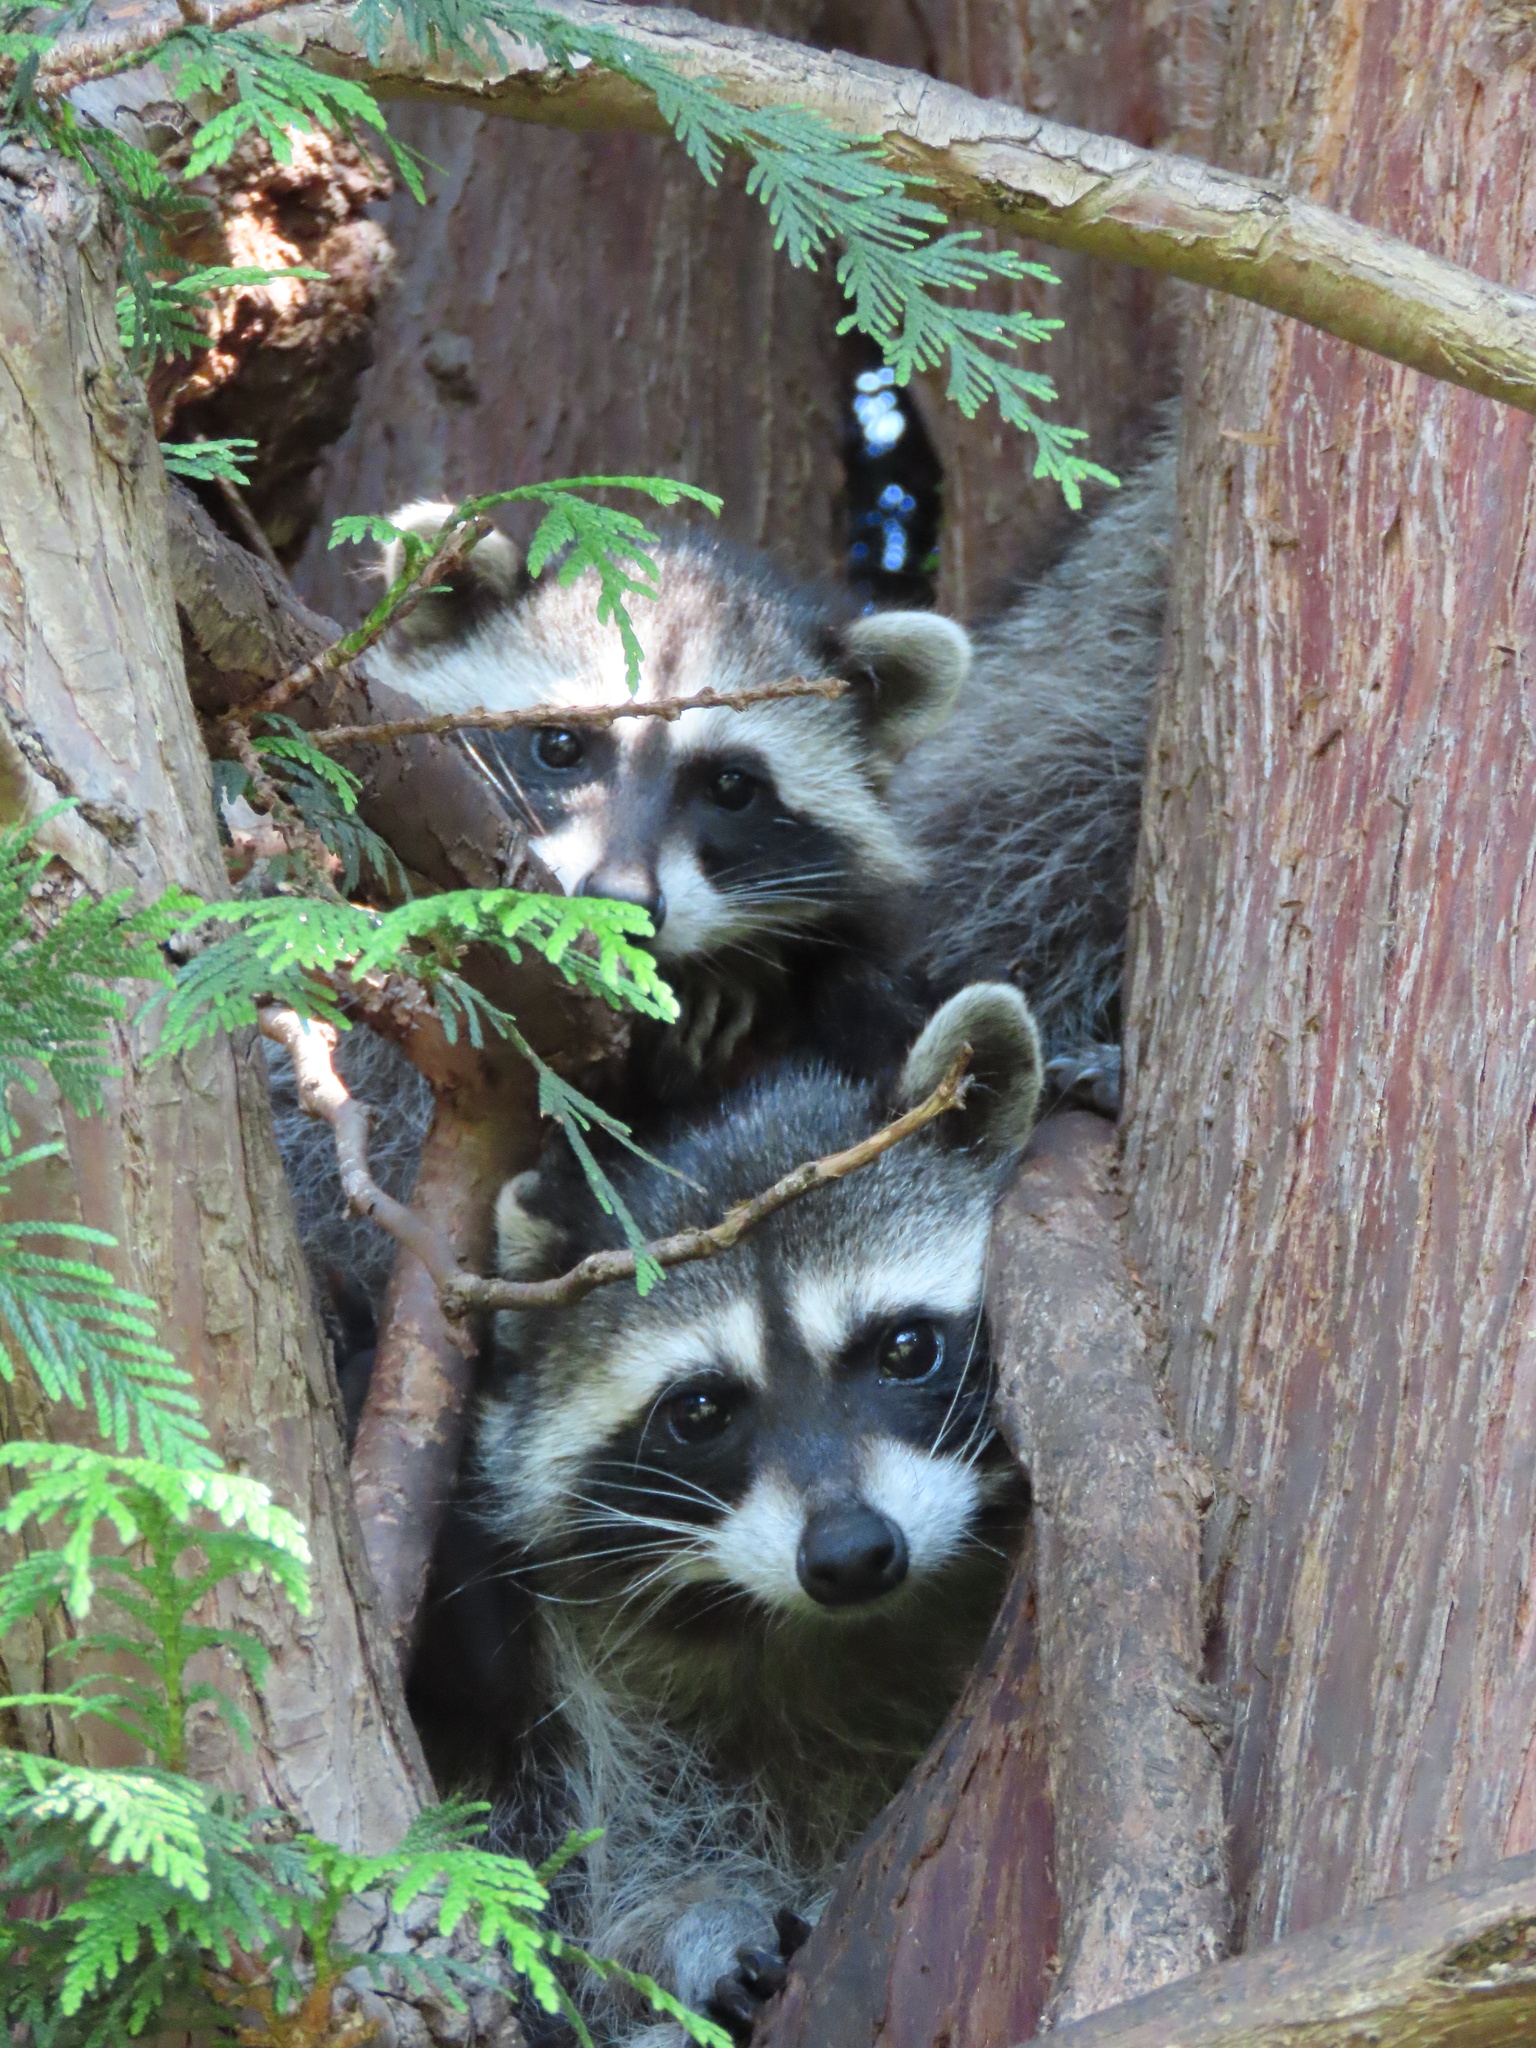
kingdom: Animalia
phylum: Chordata
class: Mammalia
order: Carnivora
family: Procyonidae
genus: Procyon
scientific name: Procyon lotor
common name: Raccoon
